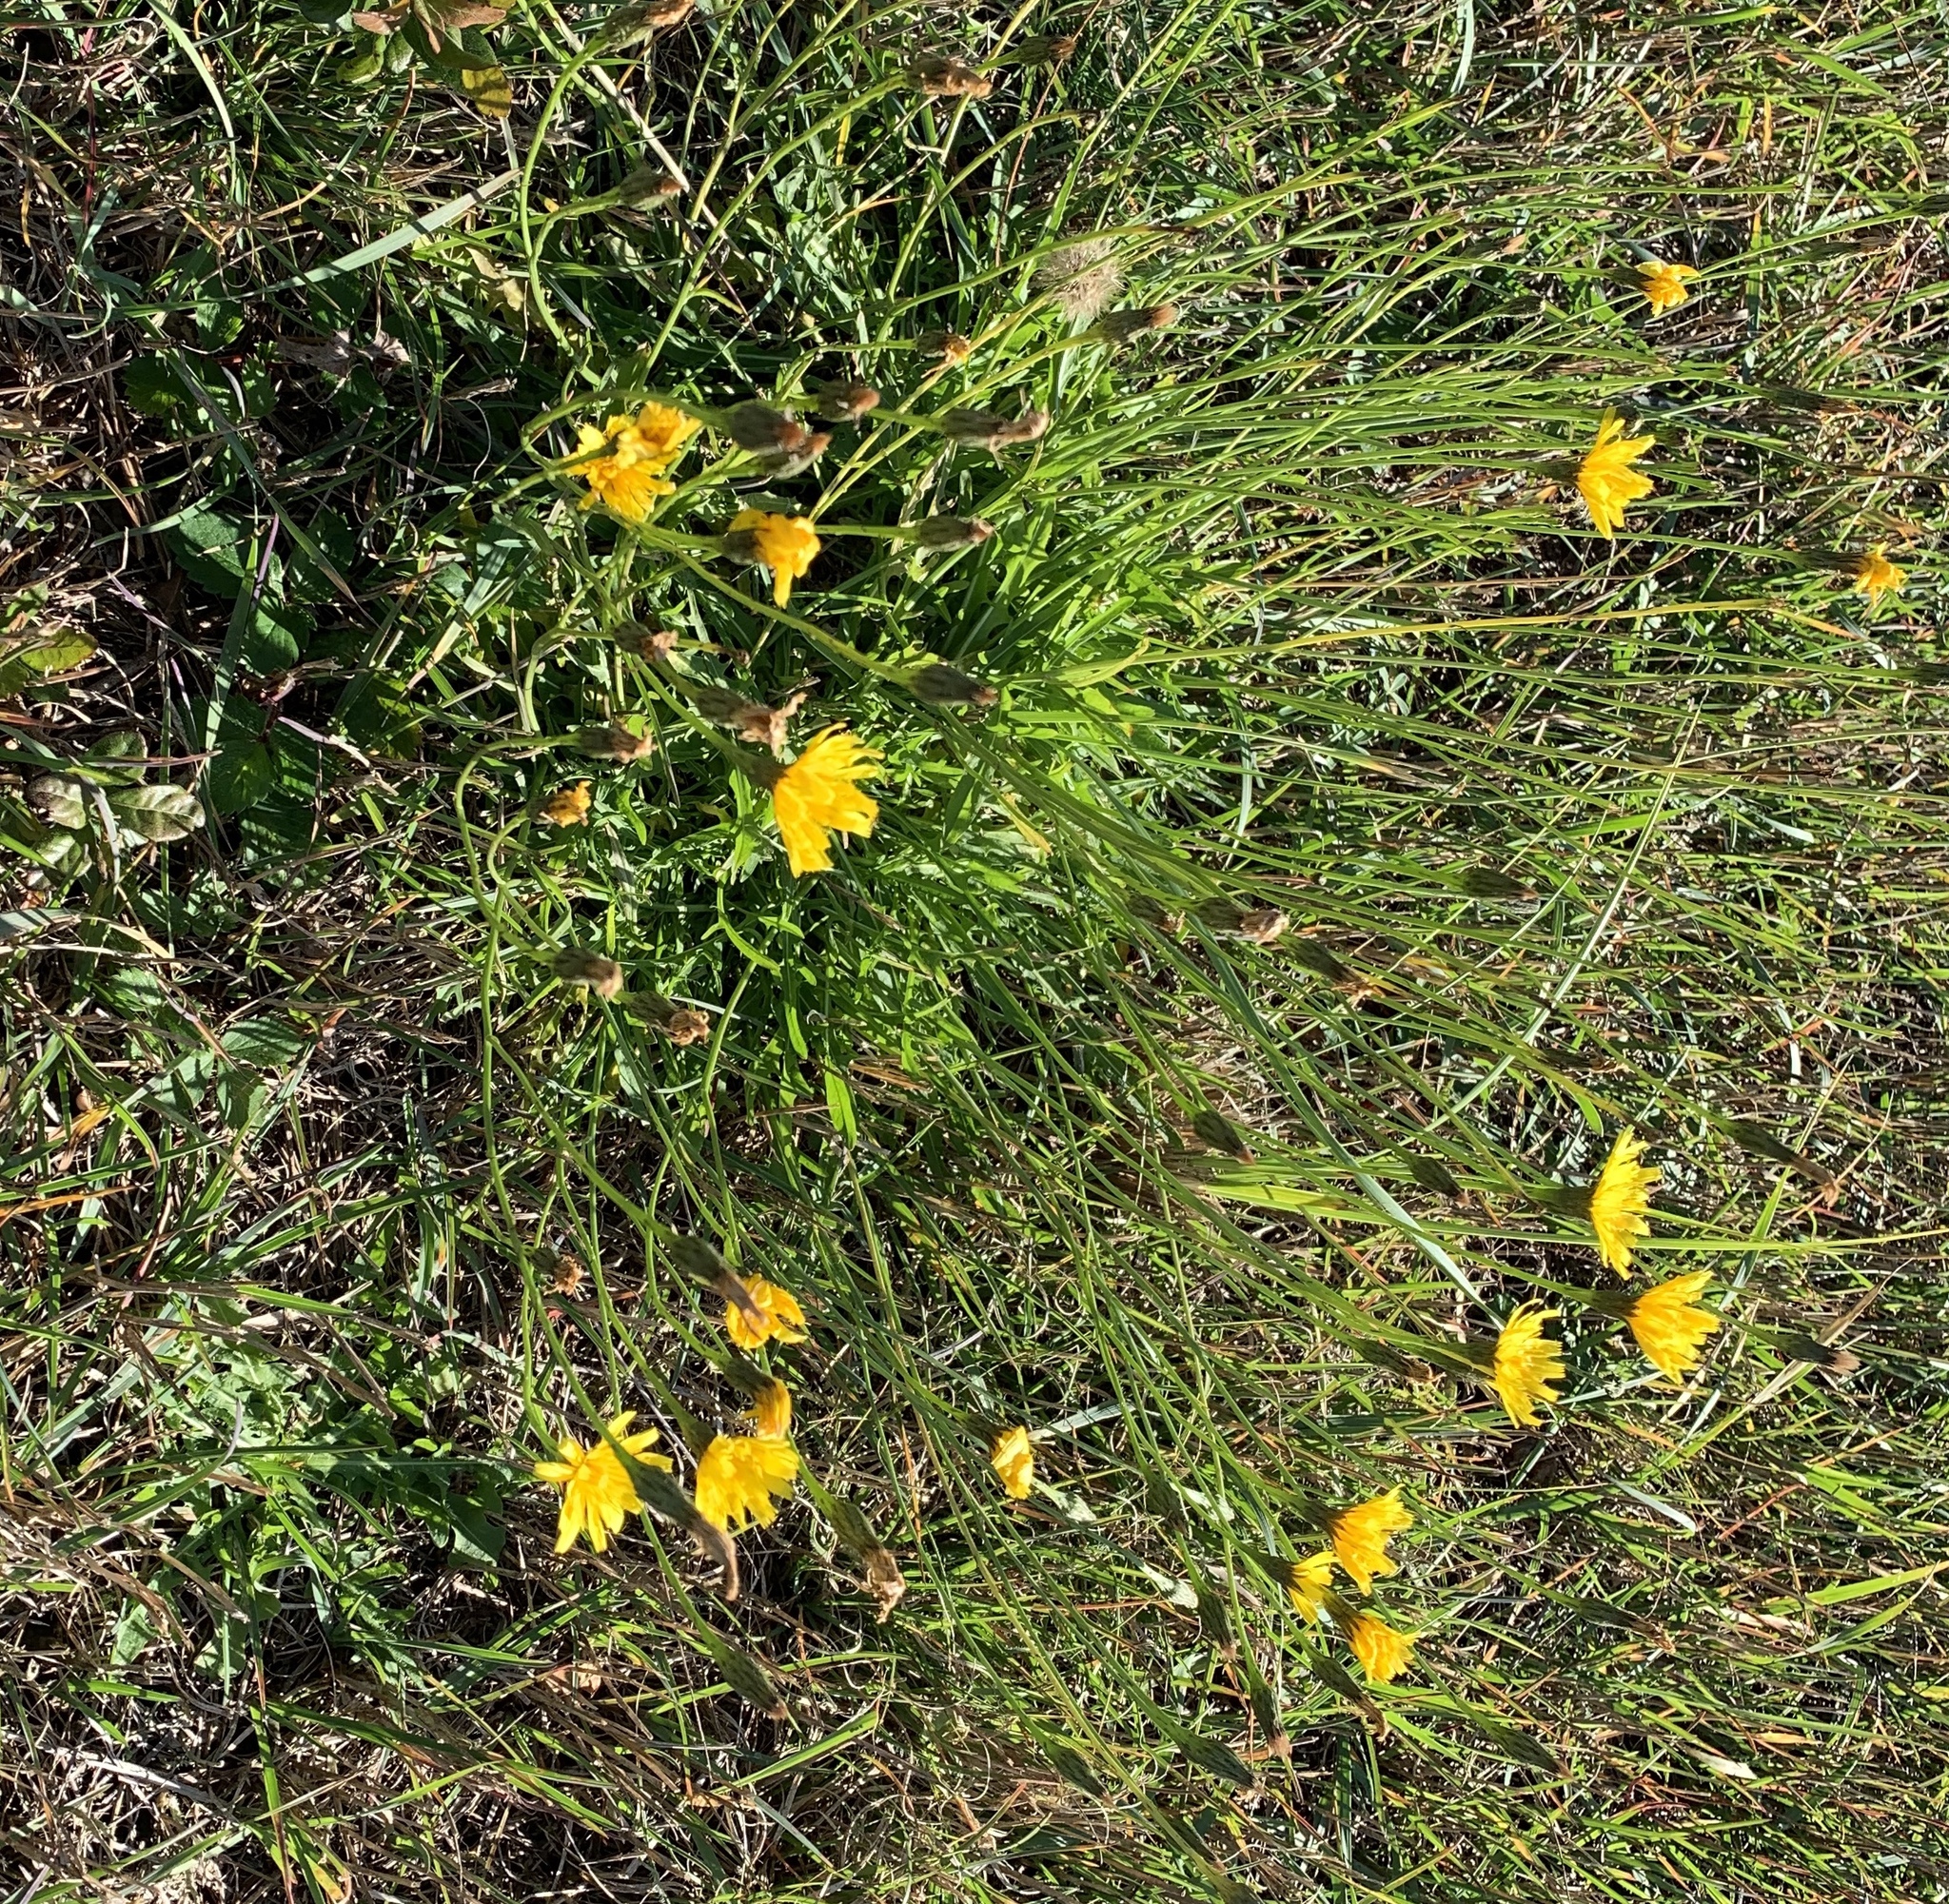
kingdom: Plantae
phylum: Tracheophyta
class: Magnoliopsida
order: Asterales
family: Asteraceae
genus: Scorzoneroides
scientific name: Scorzoneroides autumnalis
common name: Autumn hawkbit
